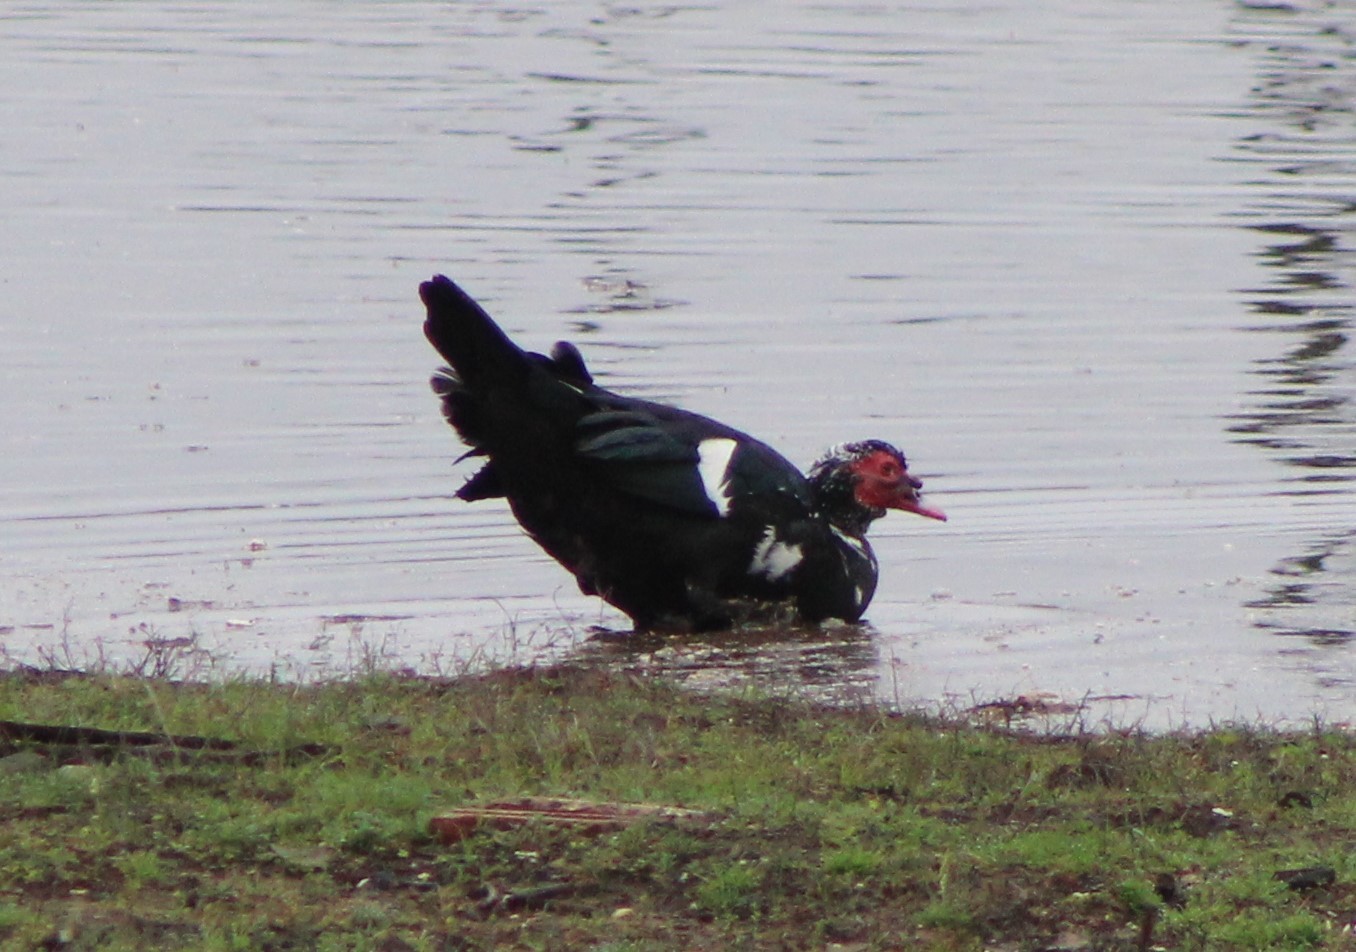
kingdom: Animalia
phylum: Chordata
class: Aves
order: Anseriformes
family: Anatidae
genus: Cairina
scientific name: Cairina moschata
